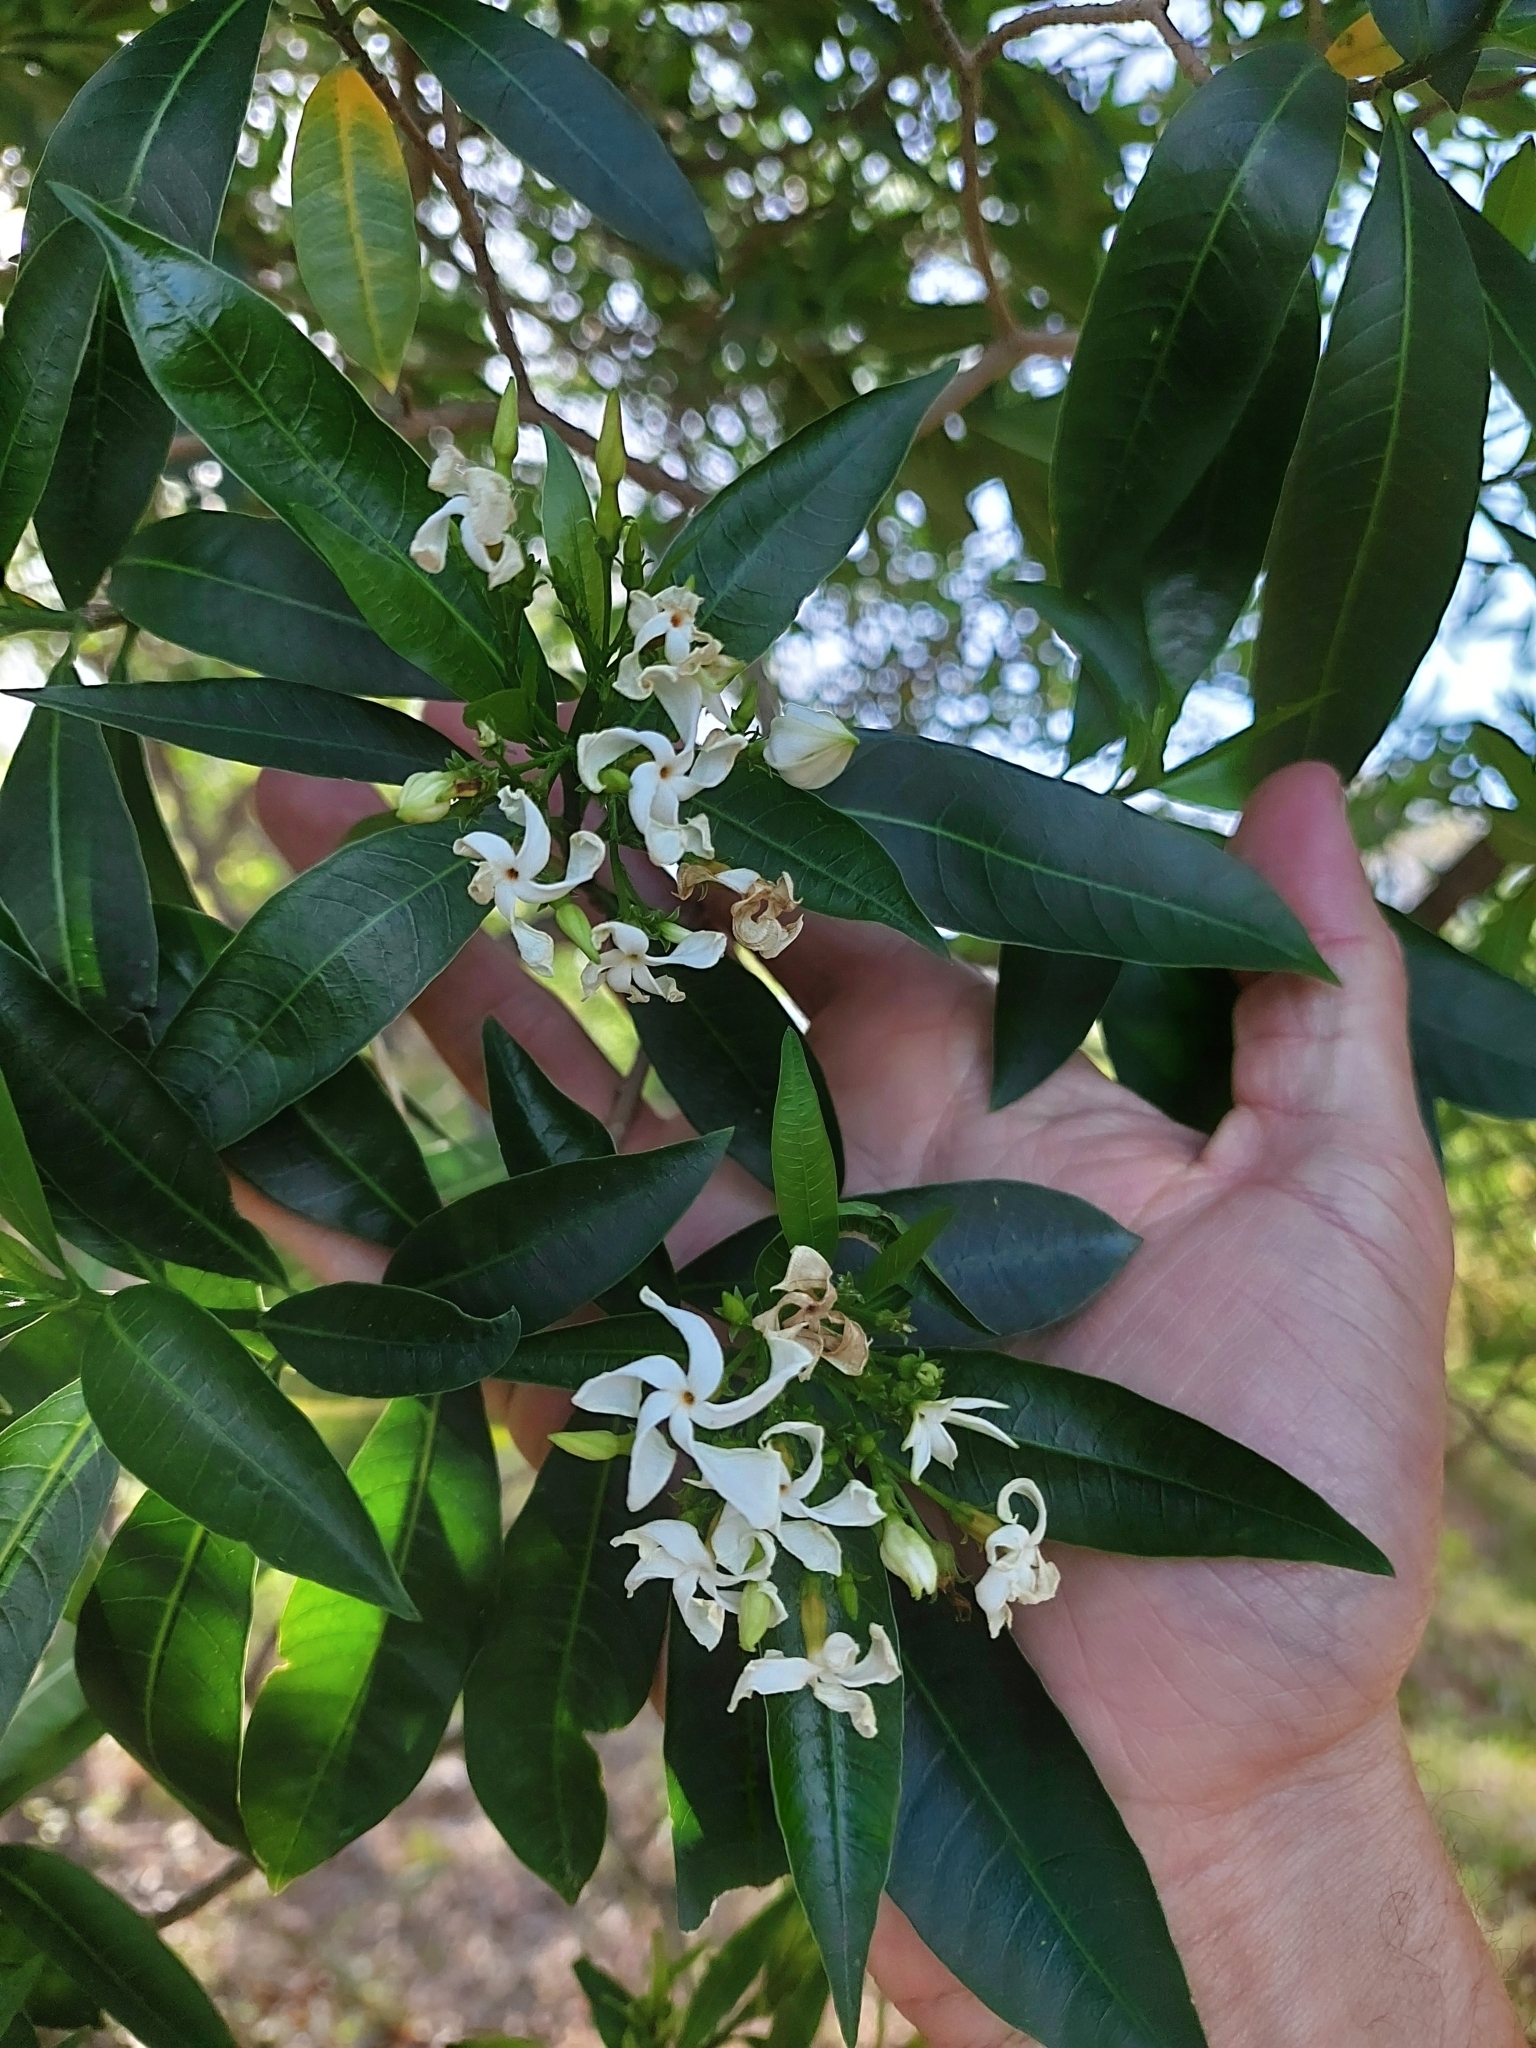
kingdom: Plantae
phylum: Tracheophyta
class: Magnoliopsida
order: Gentianales
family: Apocynaceae
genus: Tabernaemontana
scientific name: Tabernaemontana catharinensis
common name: Pinwheel-flower
